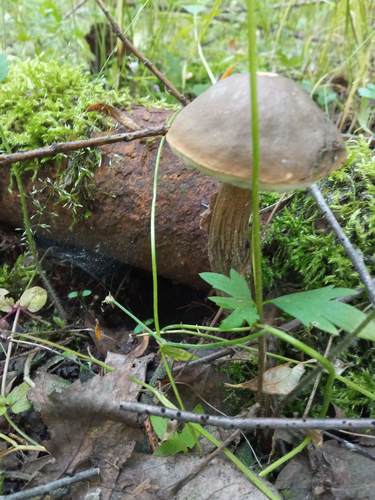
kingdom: Fungi
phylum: Basidiomycota
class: Agaricomycetes
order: Boletales
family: Boletaceae
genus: Leccinum
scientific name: Leccinum scabrum
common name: Blushing bolete
